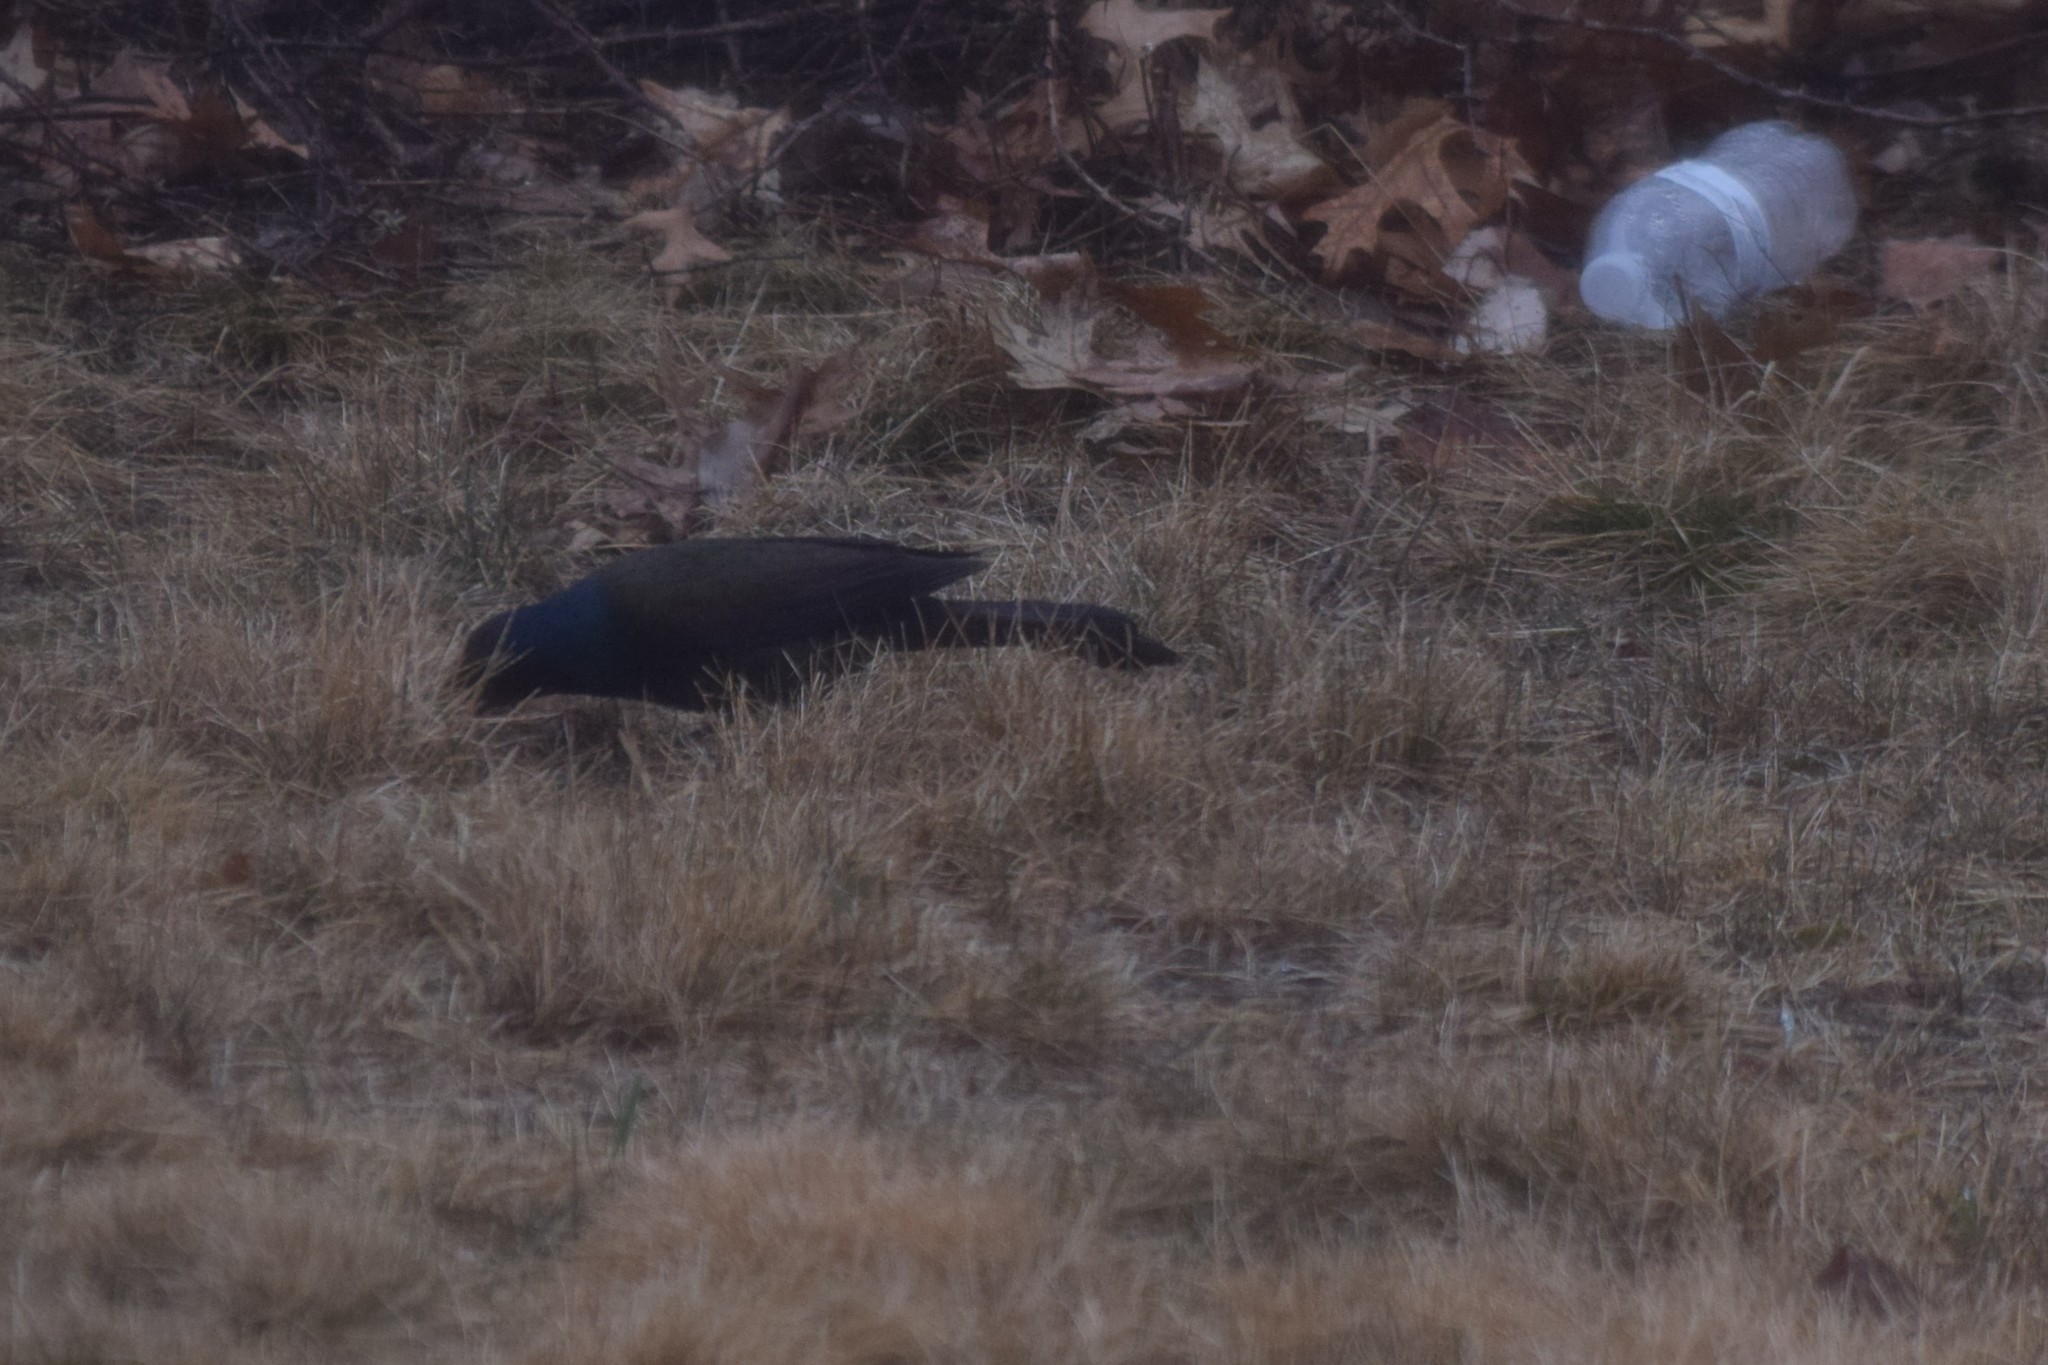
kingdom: Animalia
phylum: Chordata
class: Aves
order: Passeriformes
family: Icteridae
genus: Quiscalus
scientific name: Quiscalus quiscula
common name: Common grackle
